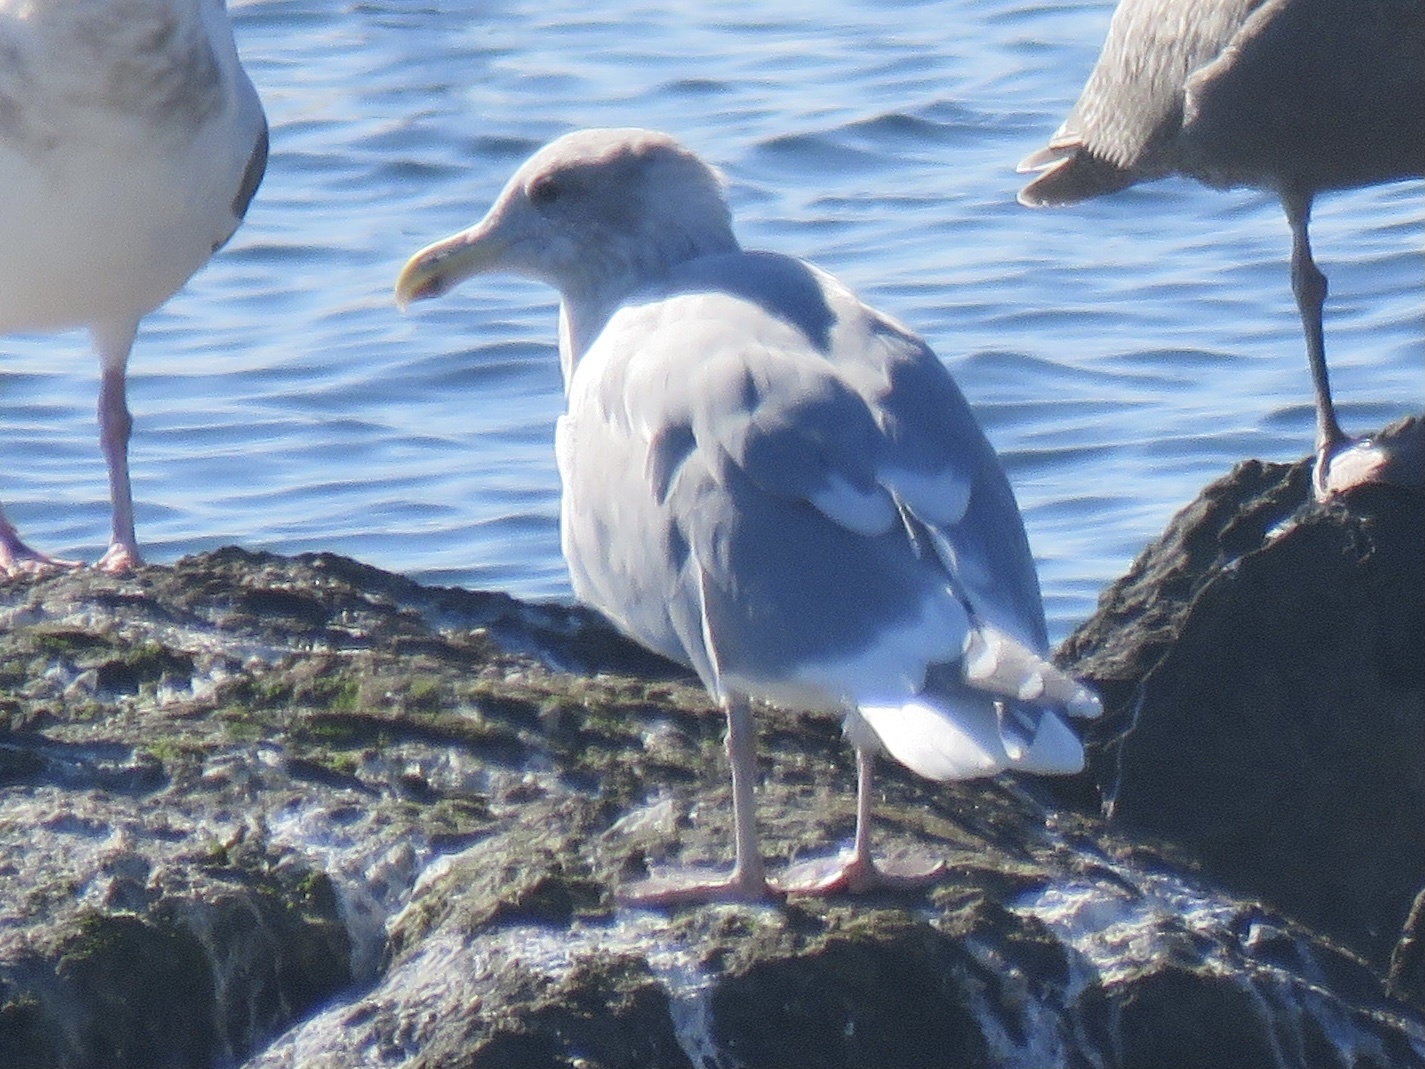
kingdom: Animalia
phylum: Chordata
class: Aves
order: Charadriiformes
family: Laridae
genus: Larus
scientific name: Larus glaucescens
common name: Glaucous-winged gull
